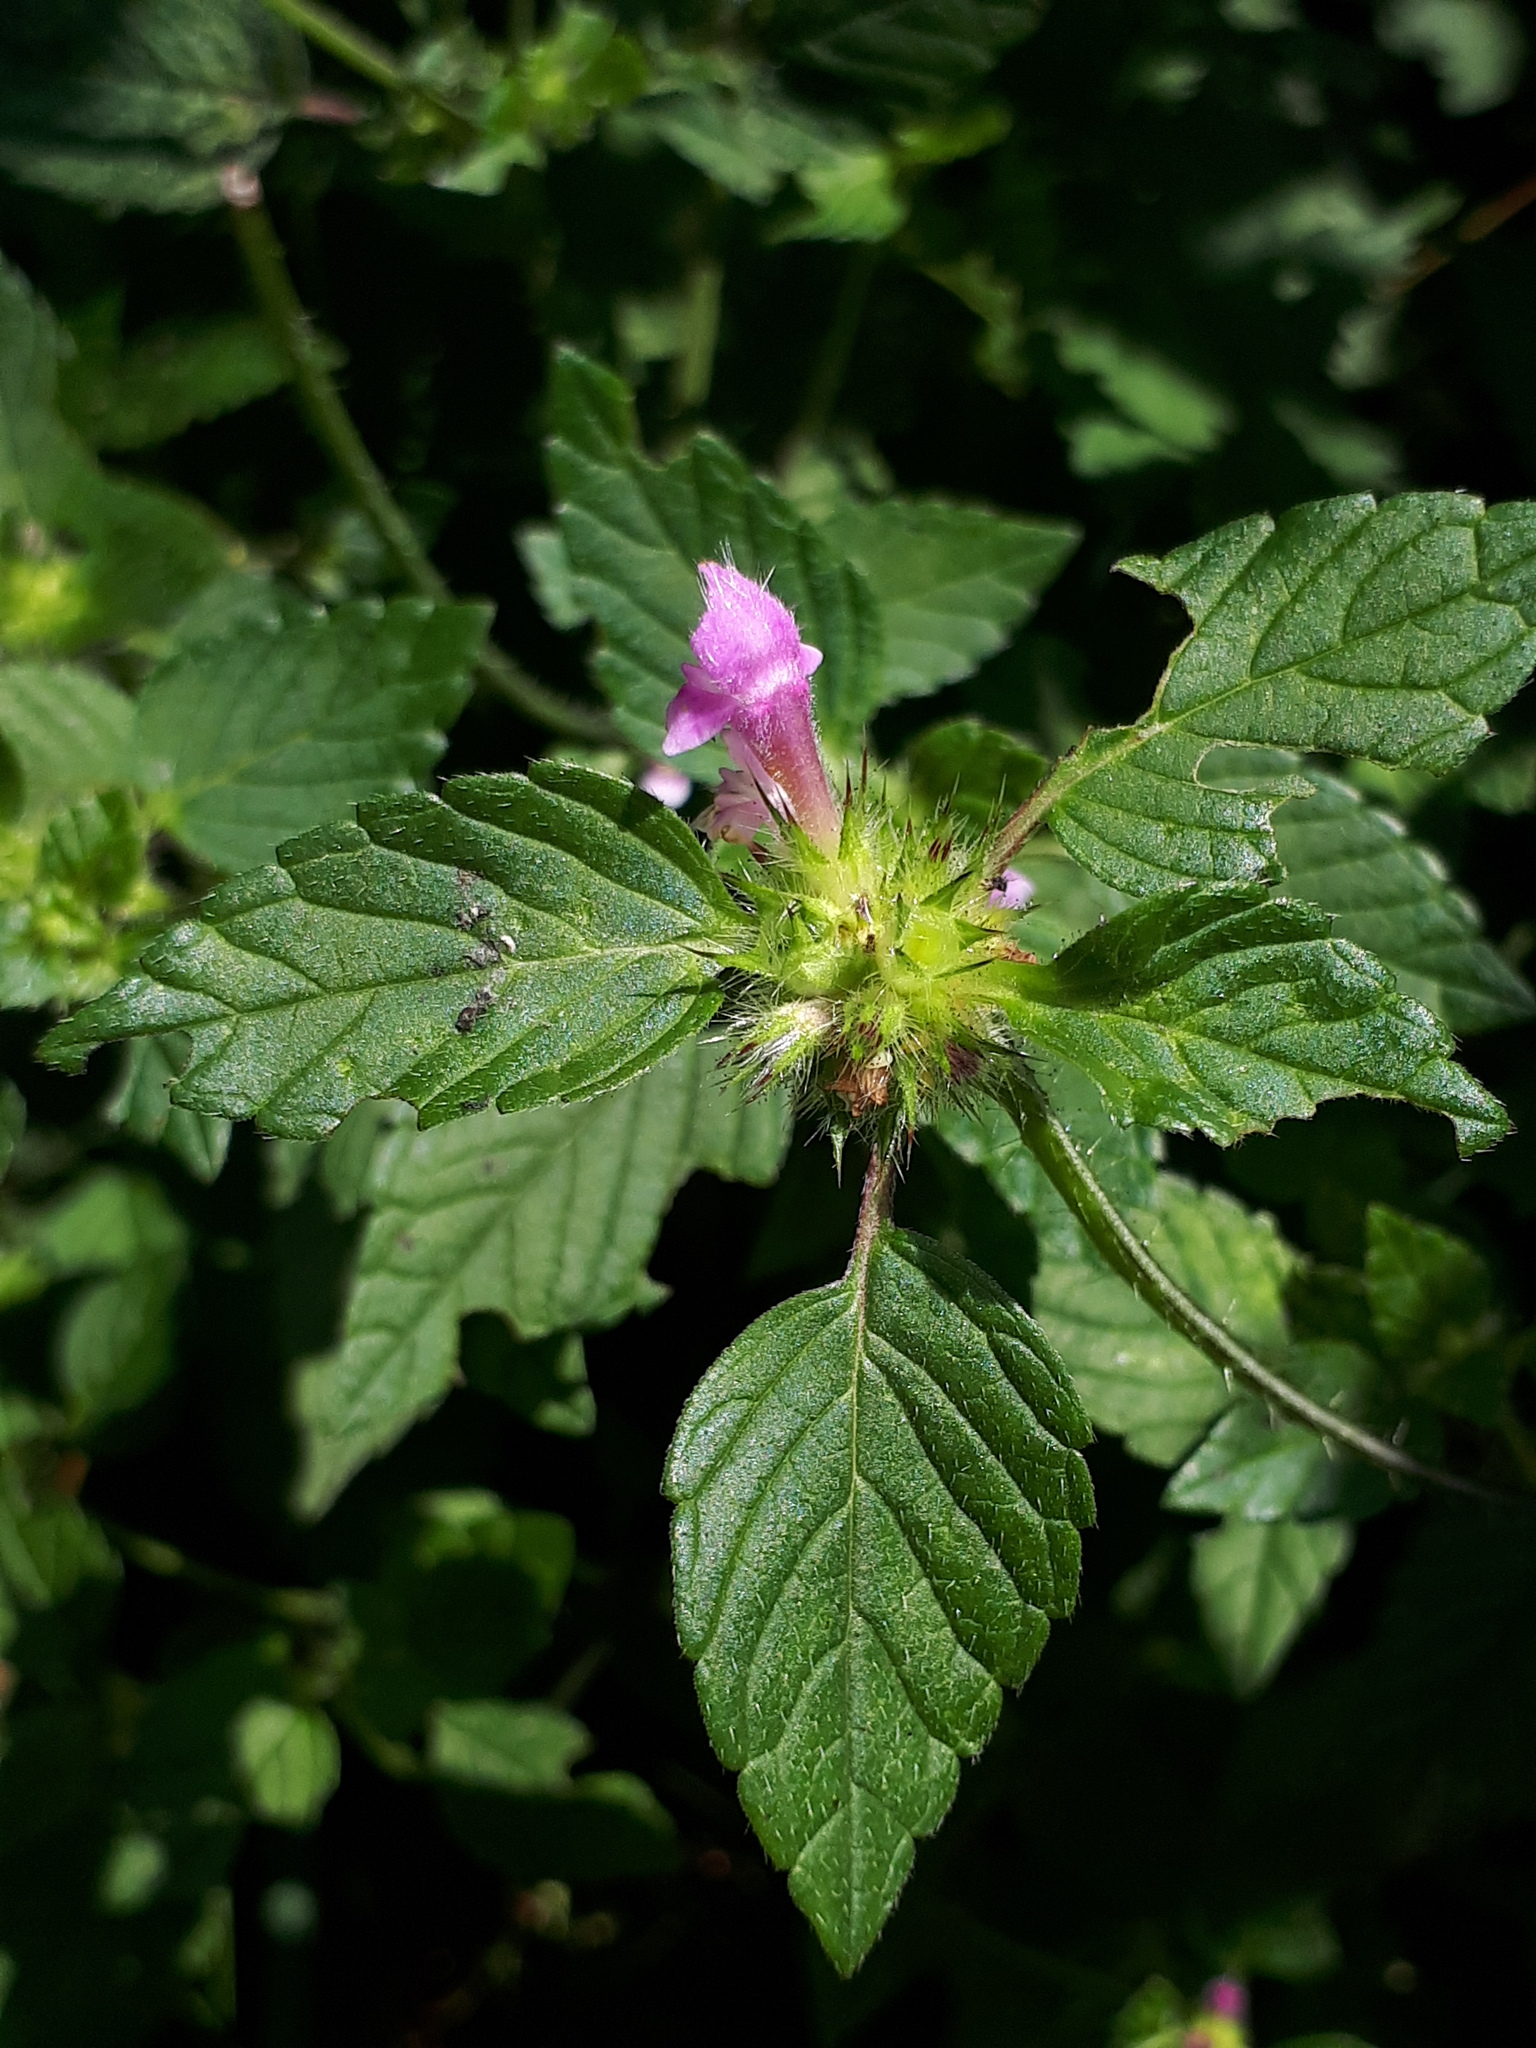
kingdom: Plantae
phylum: Tracheophyta
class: Magnoliopsida
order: Lamiales
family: Lamiaceae
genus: Galeopsis
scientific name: Galeopsis tetrahit
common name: Common hemp-nettle
